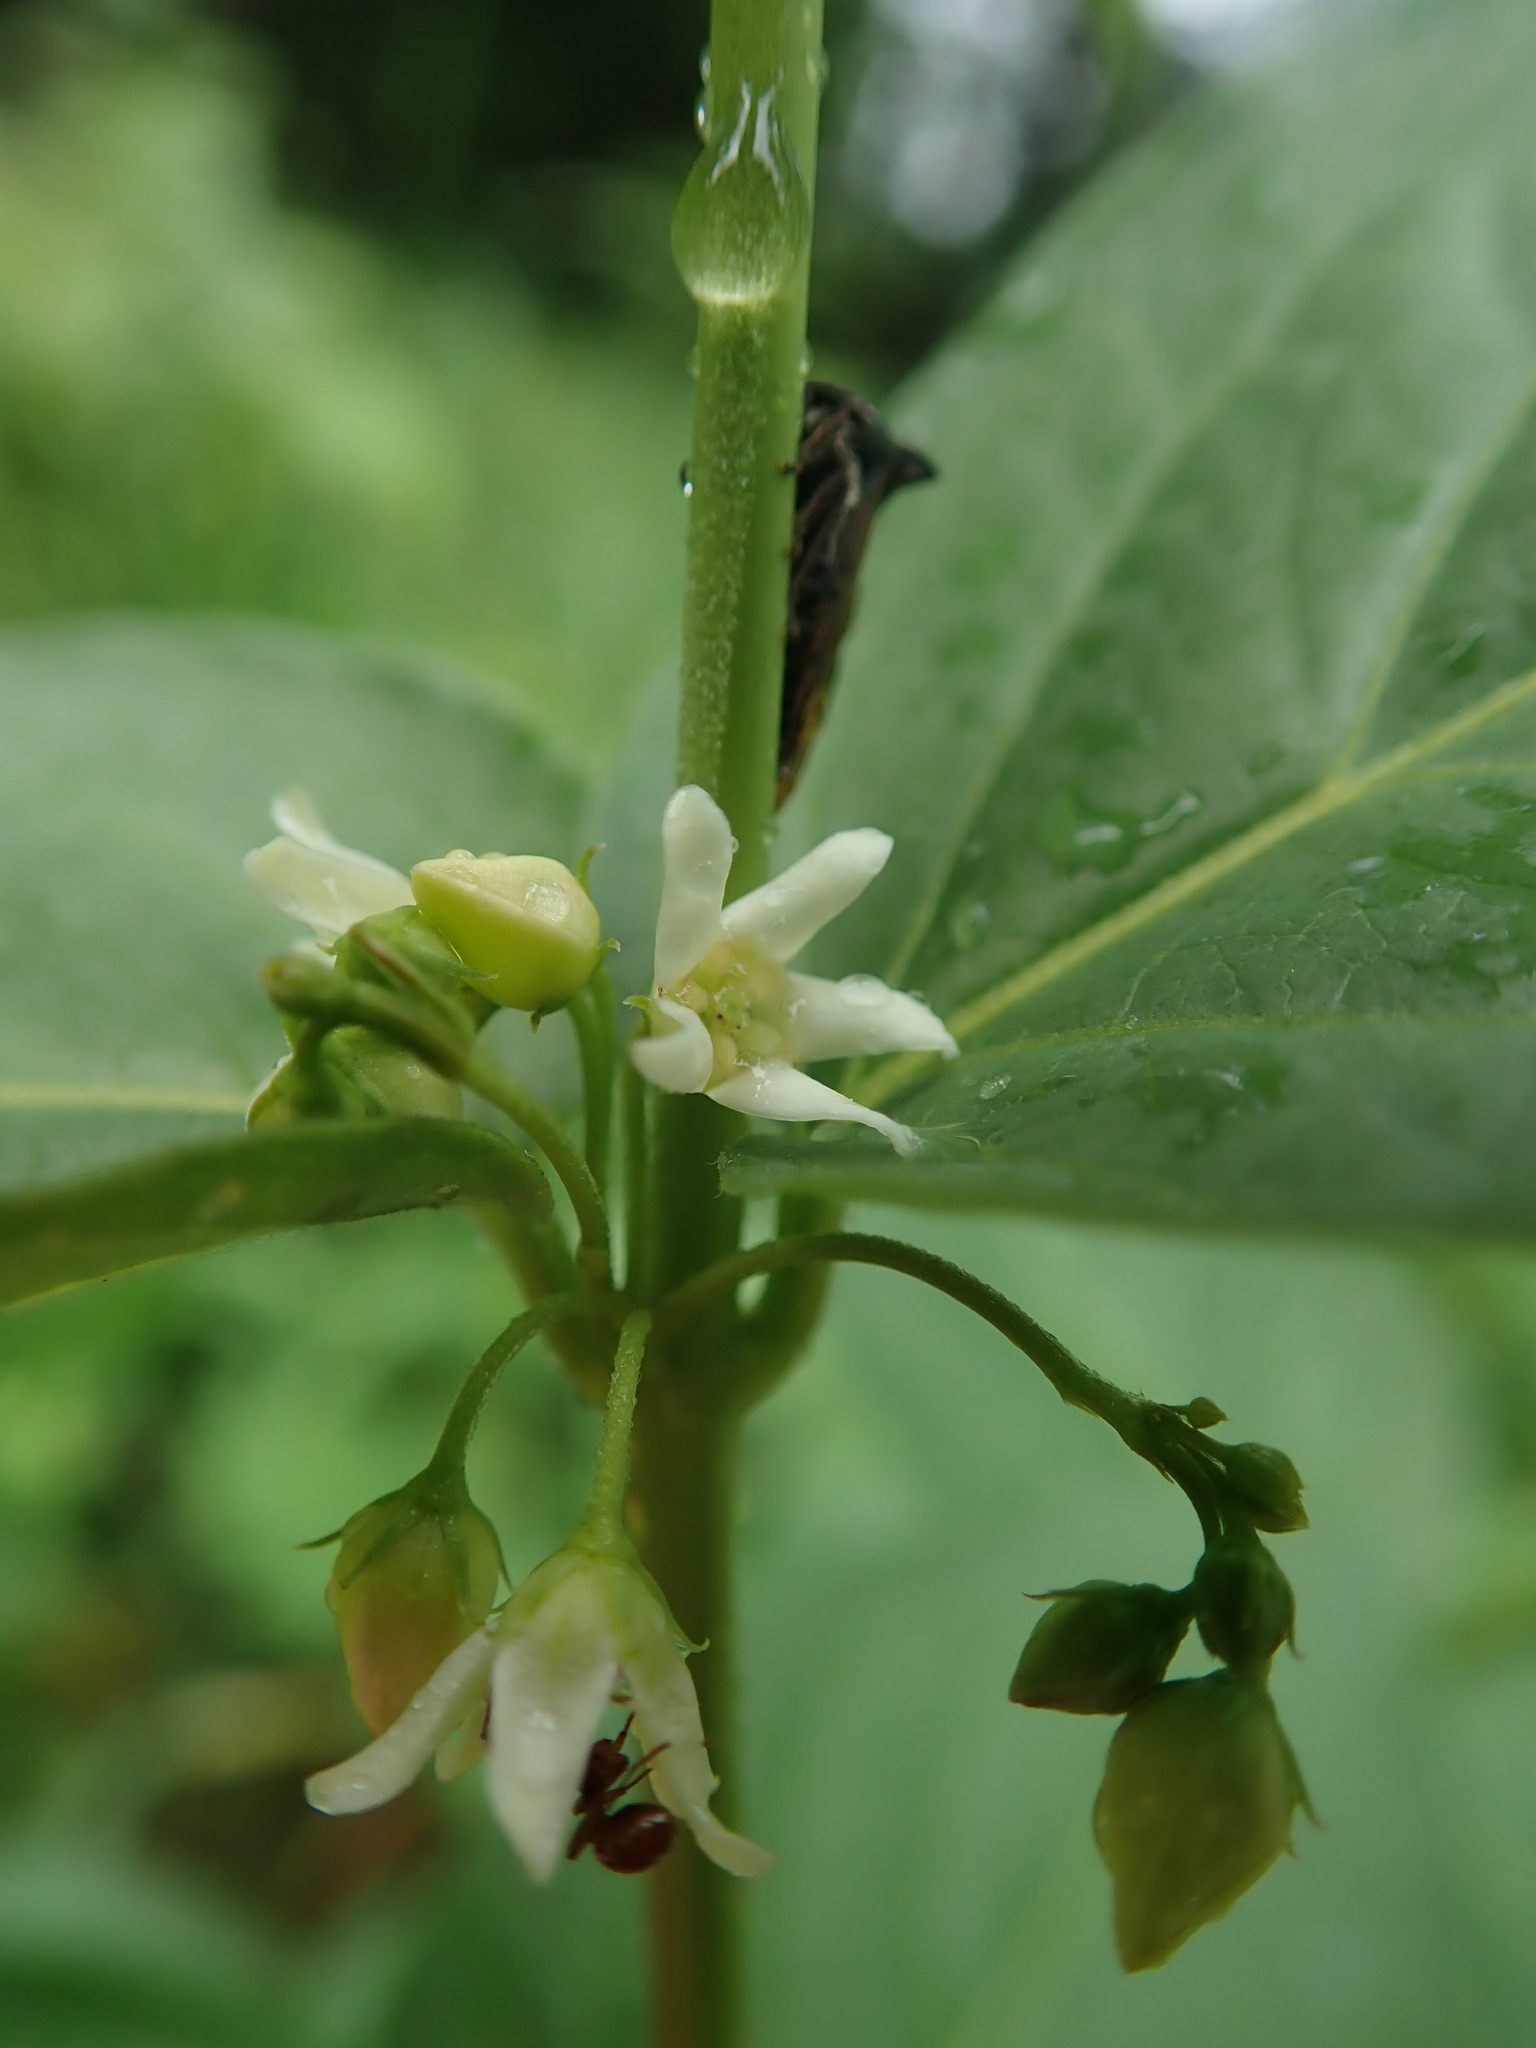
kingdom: Plantae
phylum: Tracheophyta
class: Magnoliopsida
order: Gentianales
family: Apocynaceae
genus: Vincetoxicum
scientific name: Vincetoxicum hirundinaria
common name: White swallowwort
